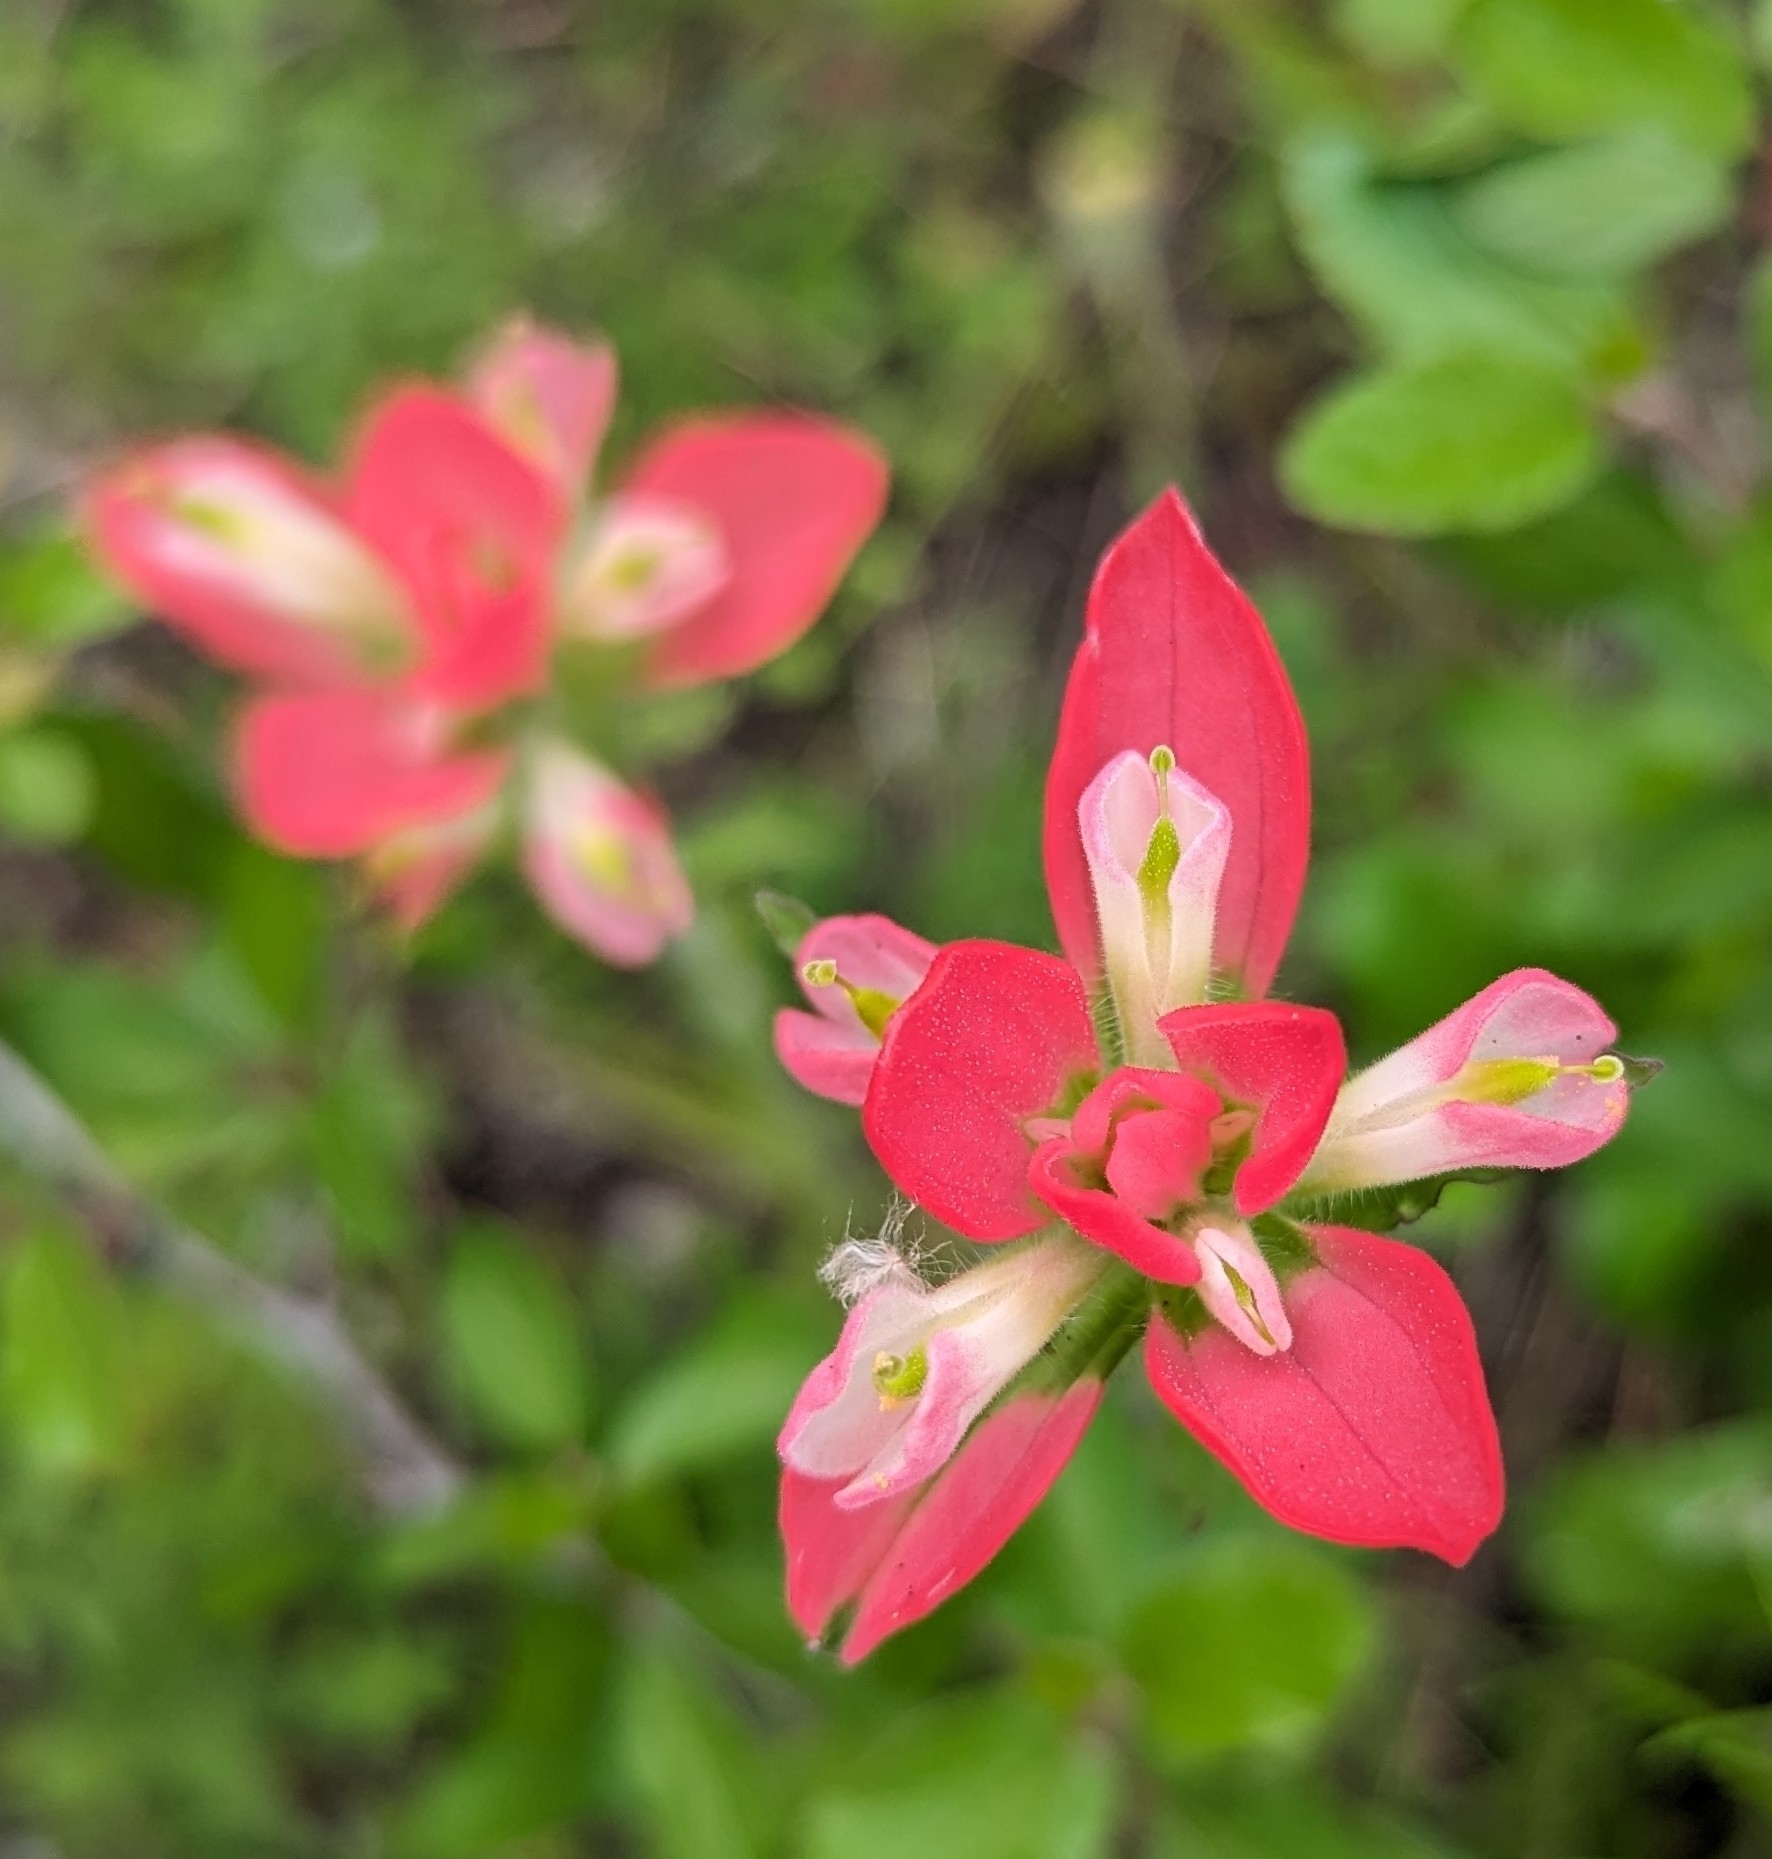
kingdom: Plantae
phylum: Tracheophyta
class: Magnoliopsida
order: Lamiales
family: Orobanchaceae
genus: Castilleja
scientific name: Castilleja indivisa
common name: Texas paintbrush
